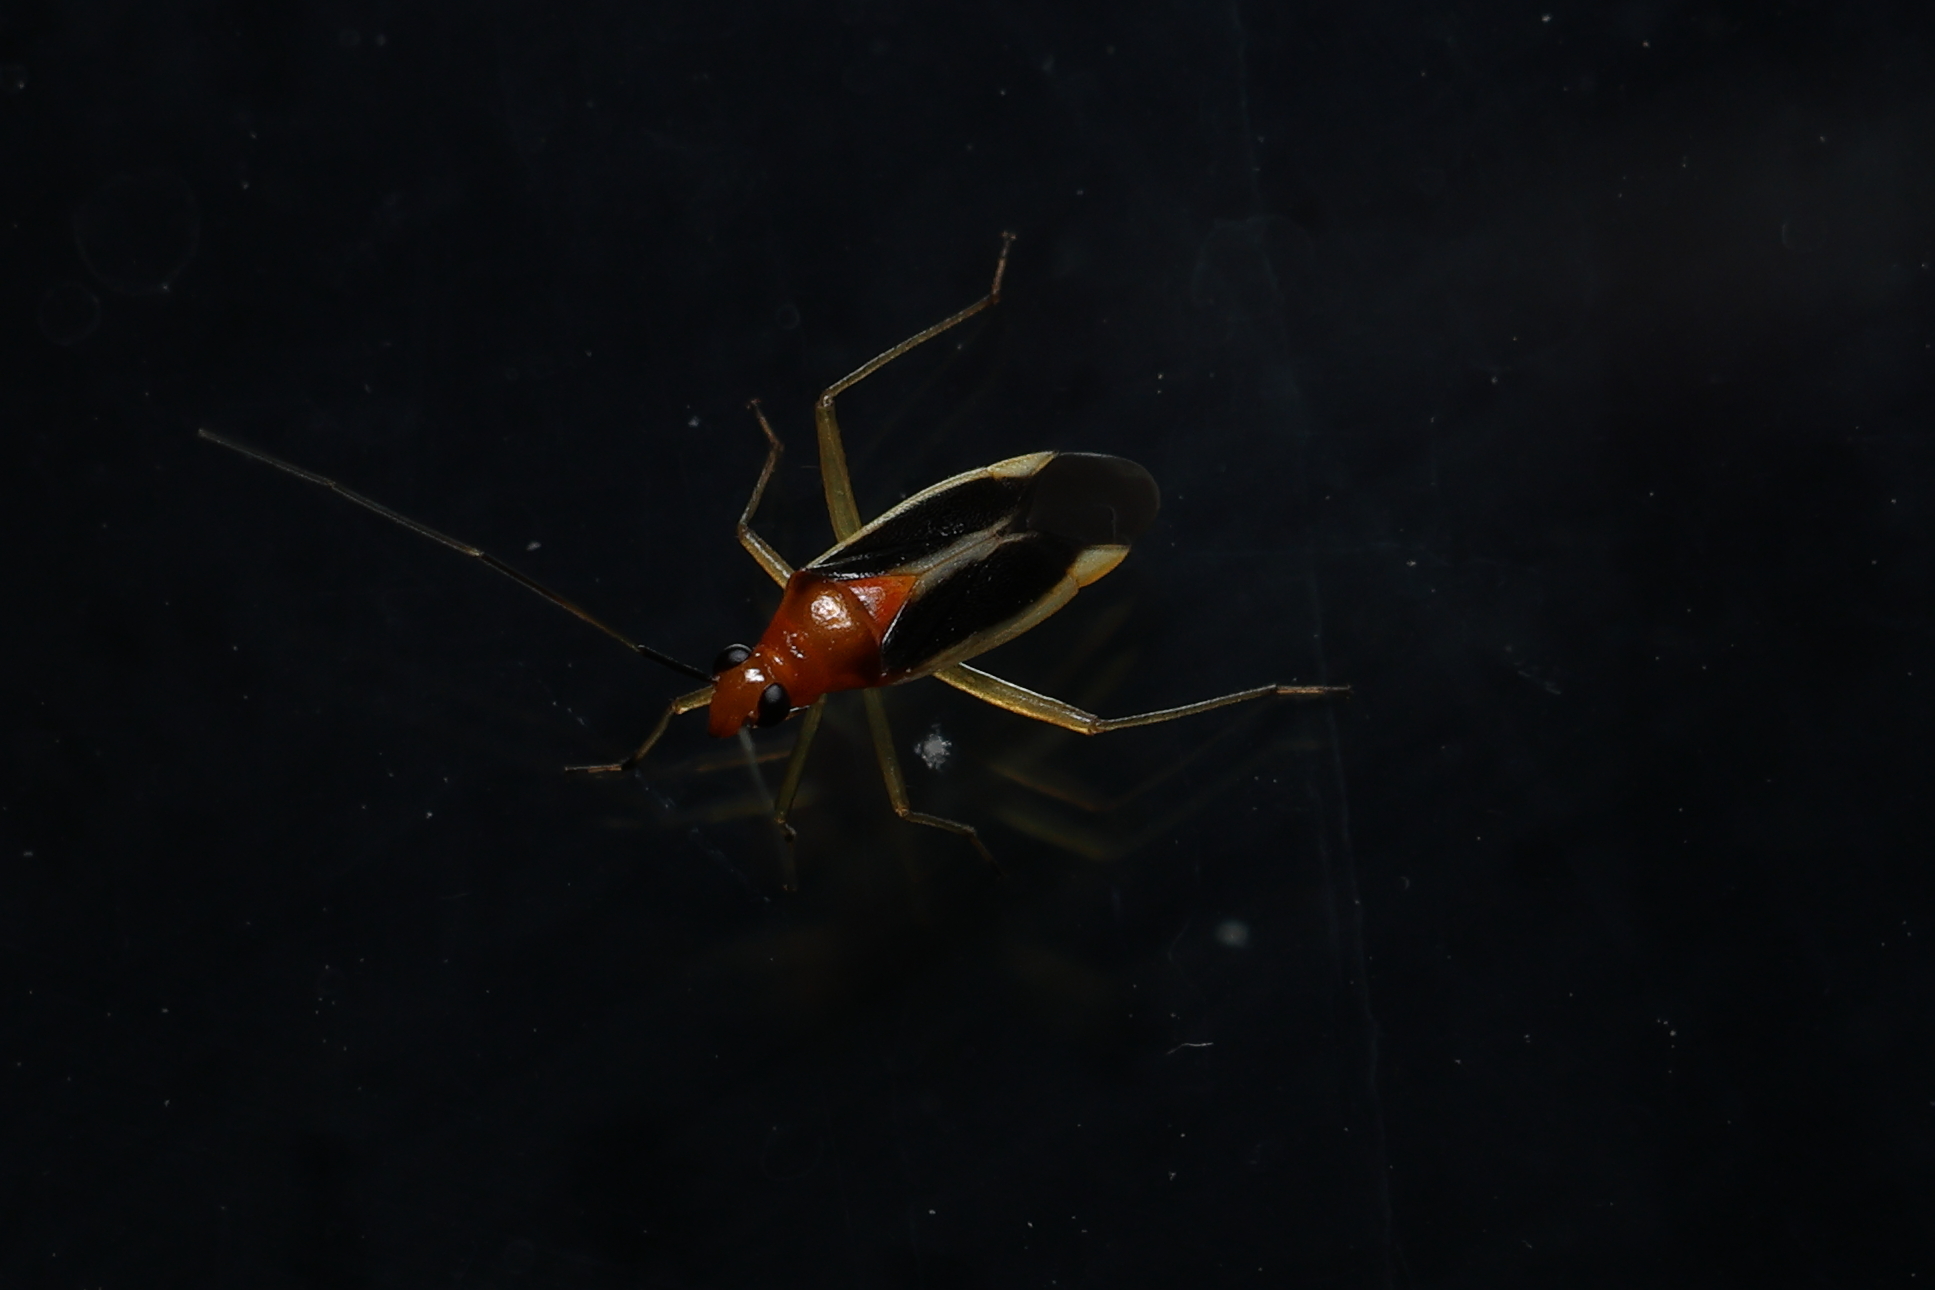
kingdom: Animalia
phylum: Arthropoda
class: Insecta
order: Hemiptera
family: Miridae
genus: Ganocapsus
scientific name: Ganocapsus filiformis
